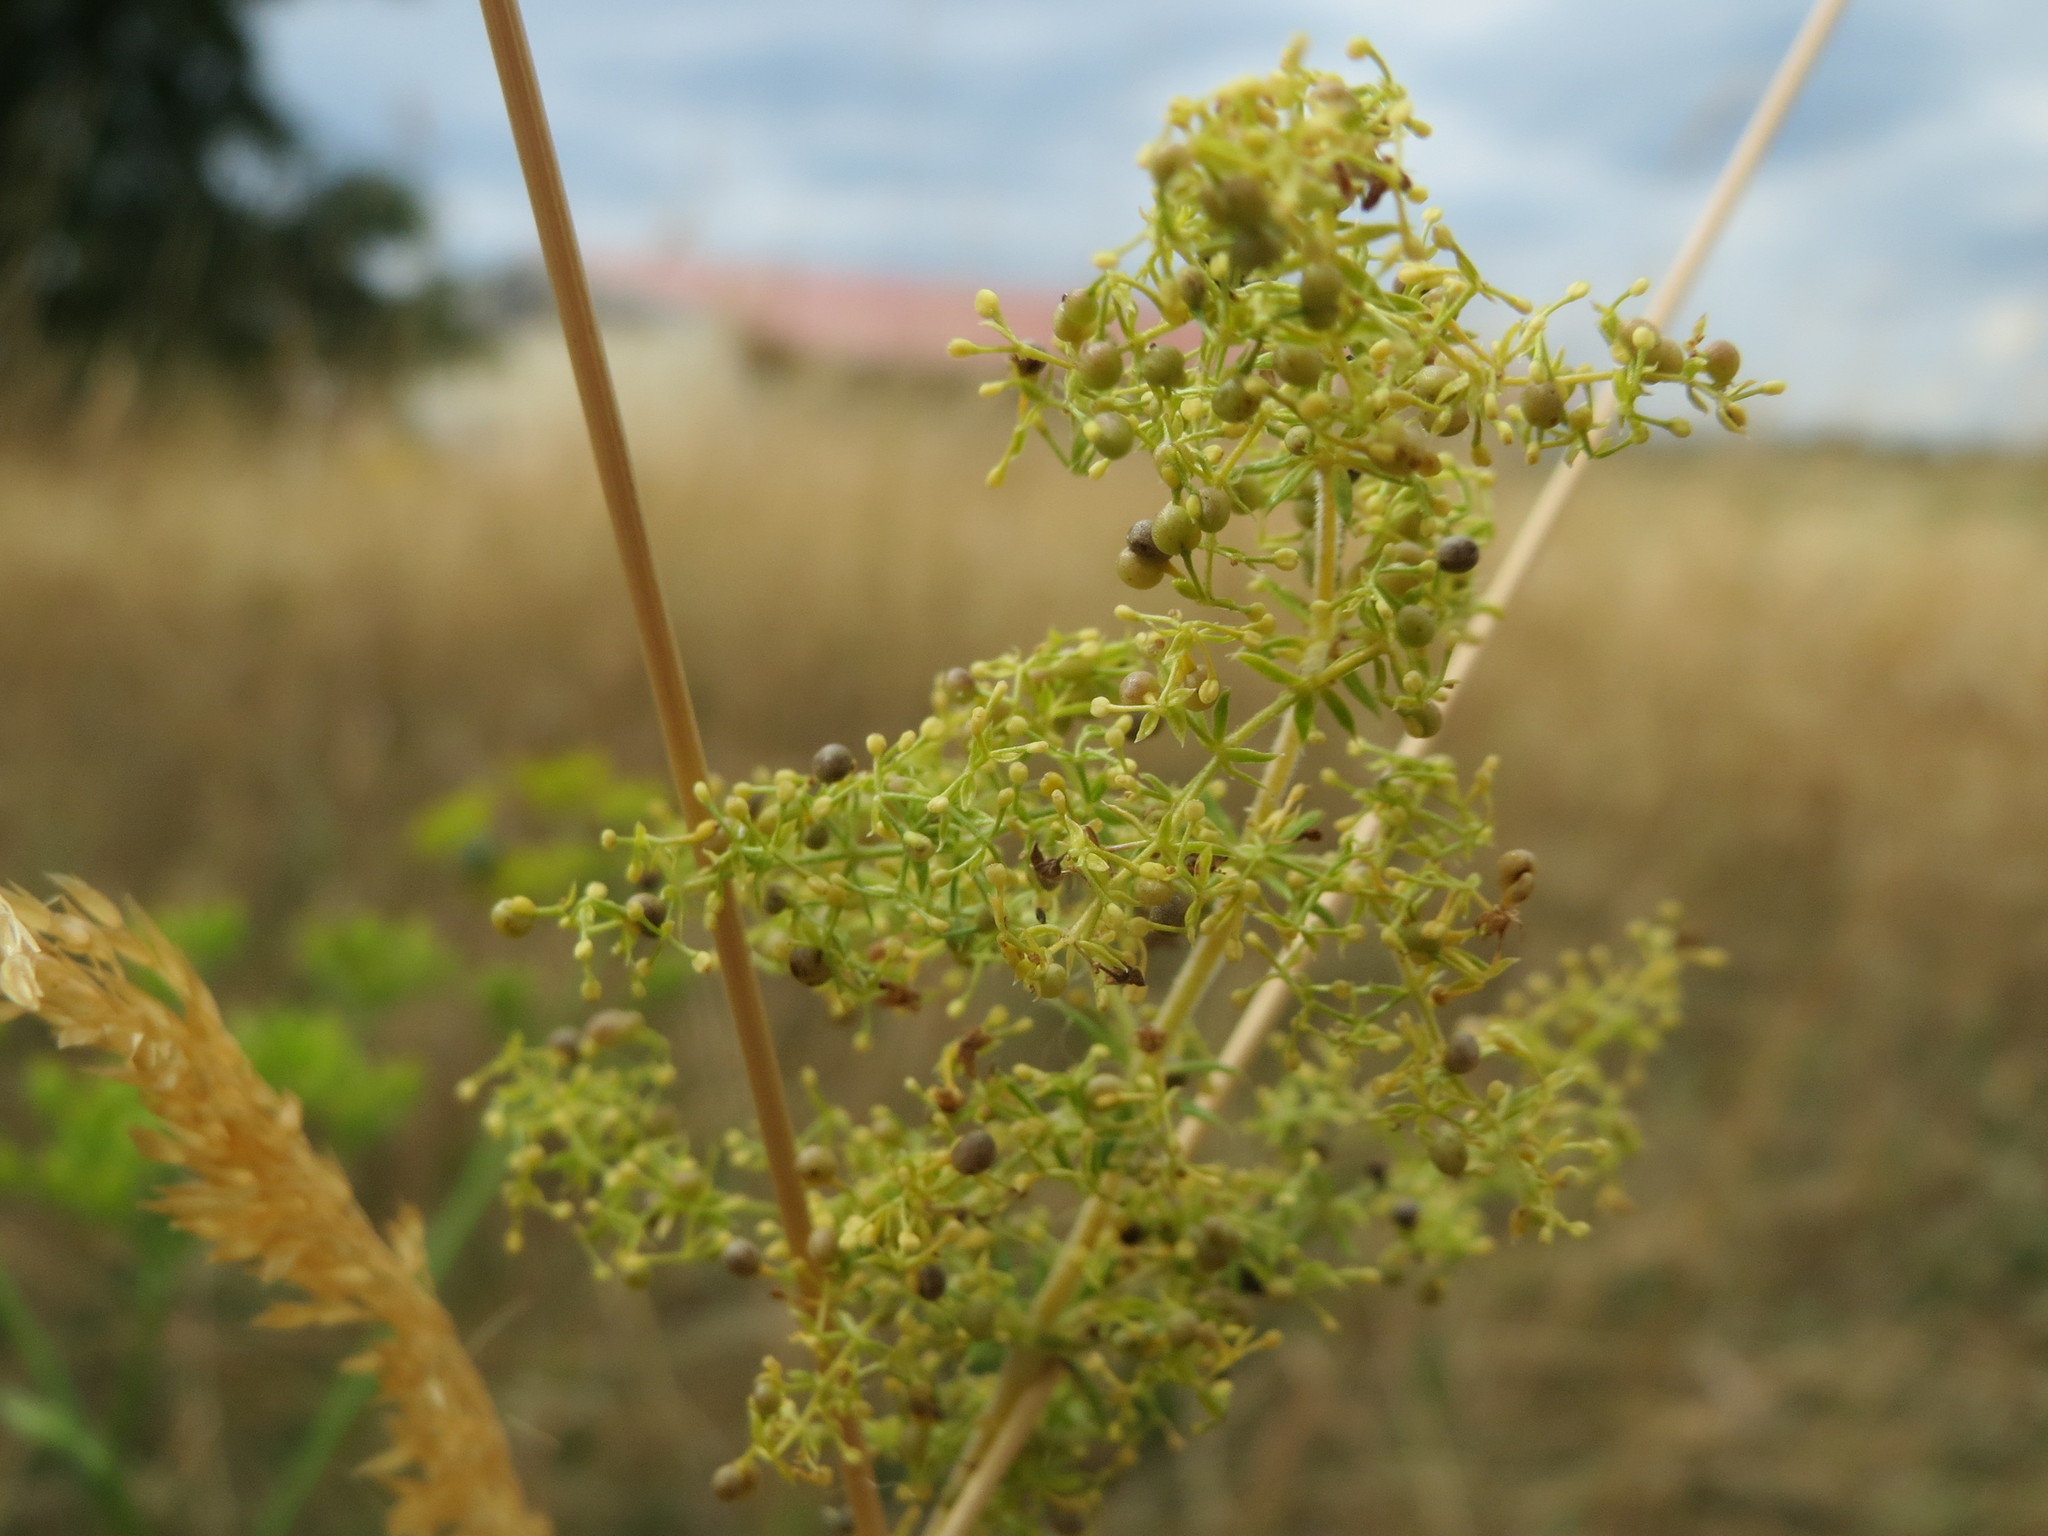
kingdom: Plantae
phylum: Tracheophyta
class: Magnoliopsida
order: Gentianales
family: Rubiaceae
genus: Galium
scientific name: Galium verum
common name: Lady's bedstraw
